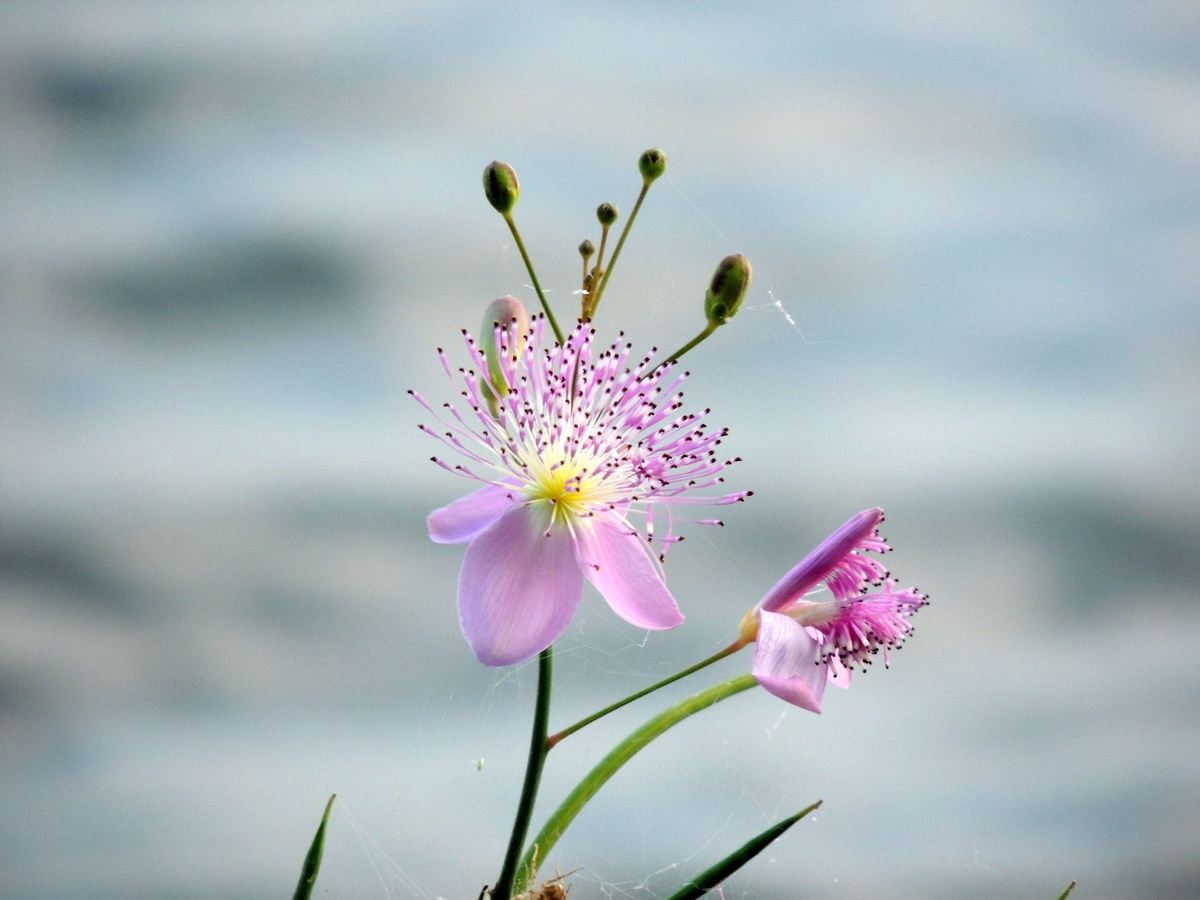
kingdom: Plantae
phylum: Tracheophyta
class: Magnoliopsida
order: Brassicales
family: Cleomaceae
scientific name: Cleomaceae
